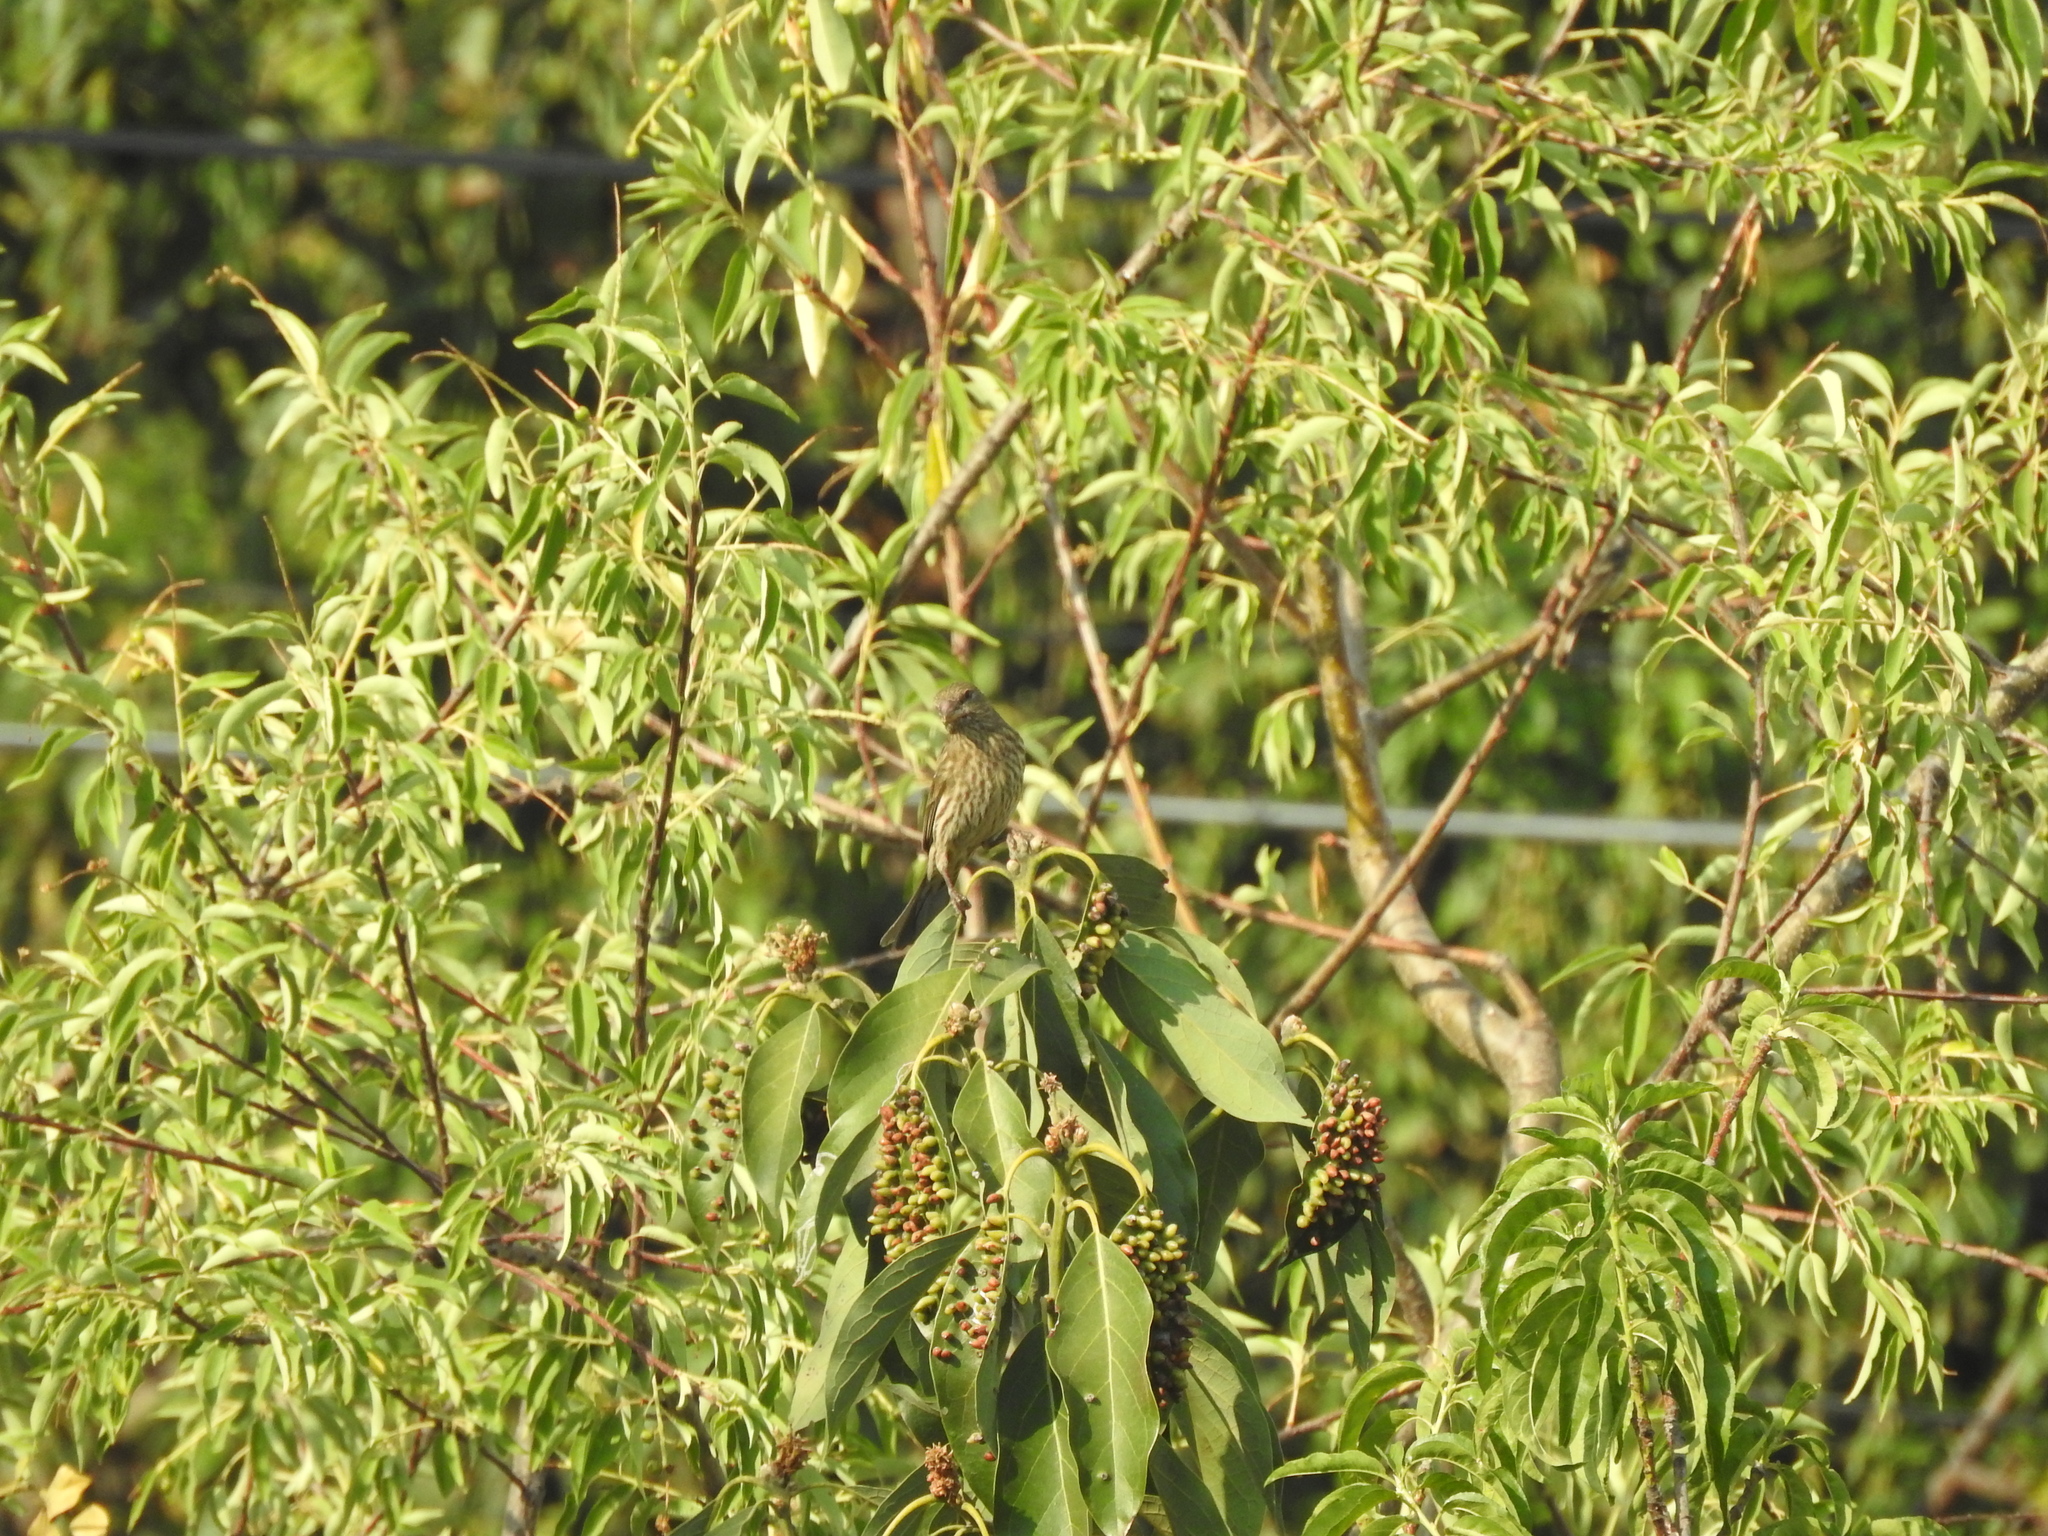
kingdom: Animalia
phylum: Chordata
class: Aves
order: Passeriformes
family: Fringillidae
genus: Haemorhous
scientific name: Haemorhous mexicanus
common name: House finch
